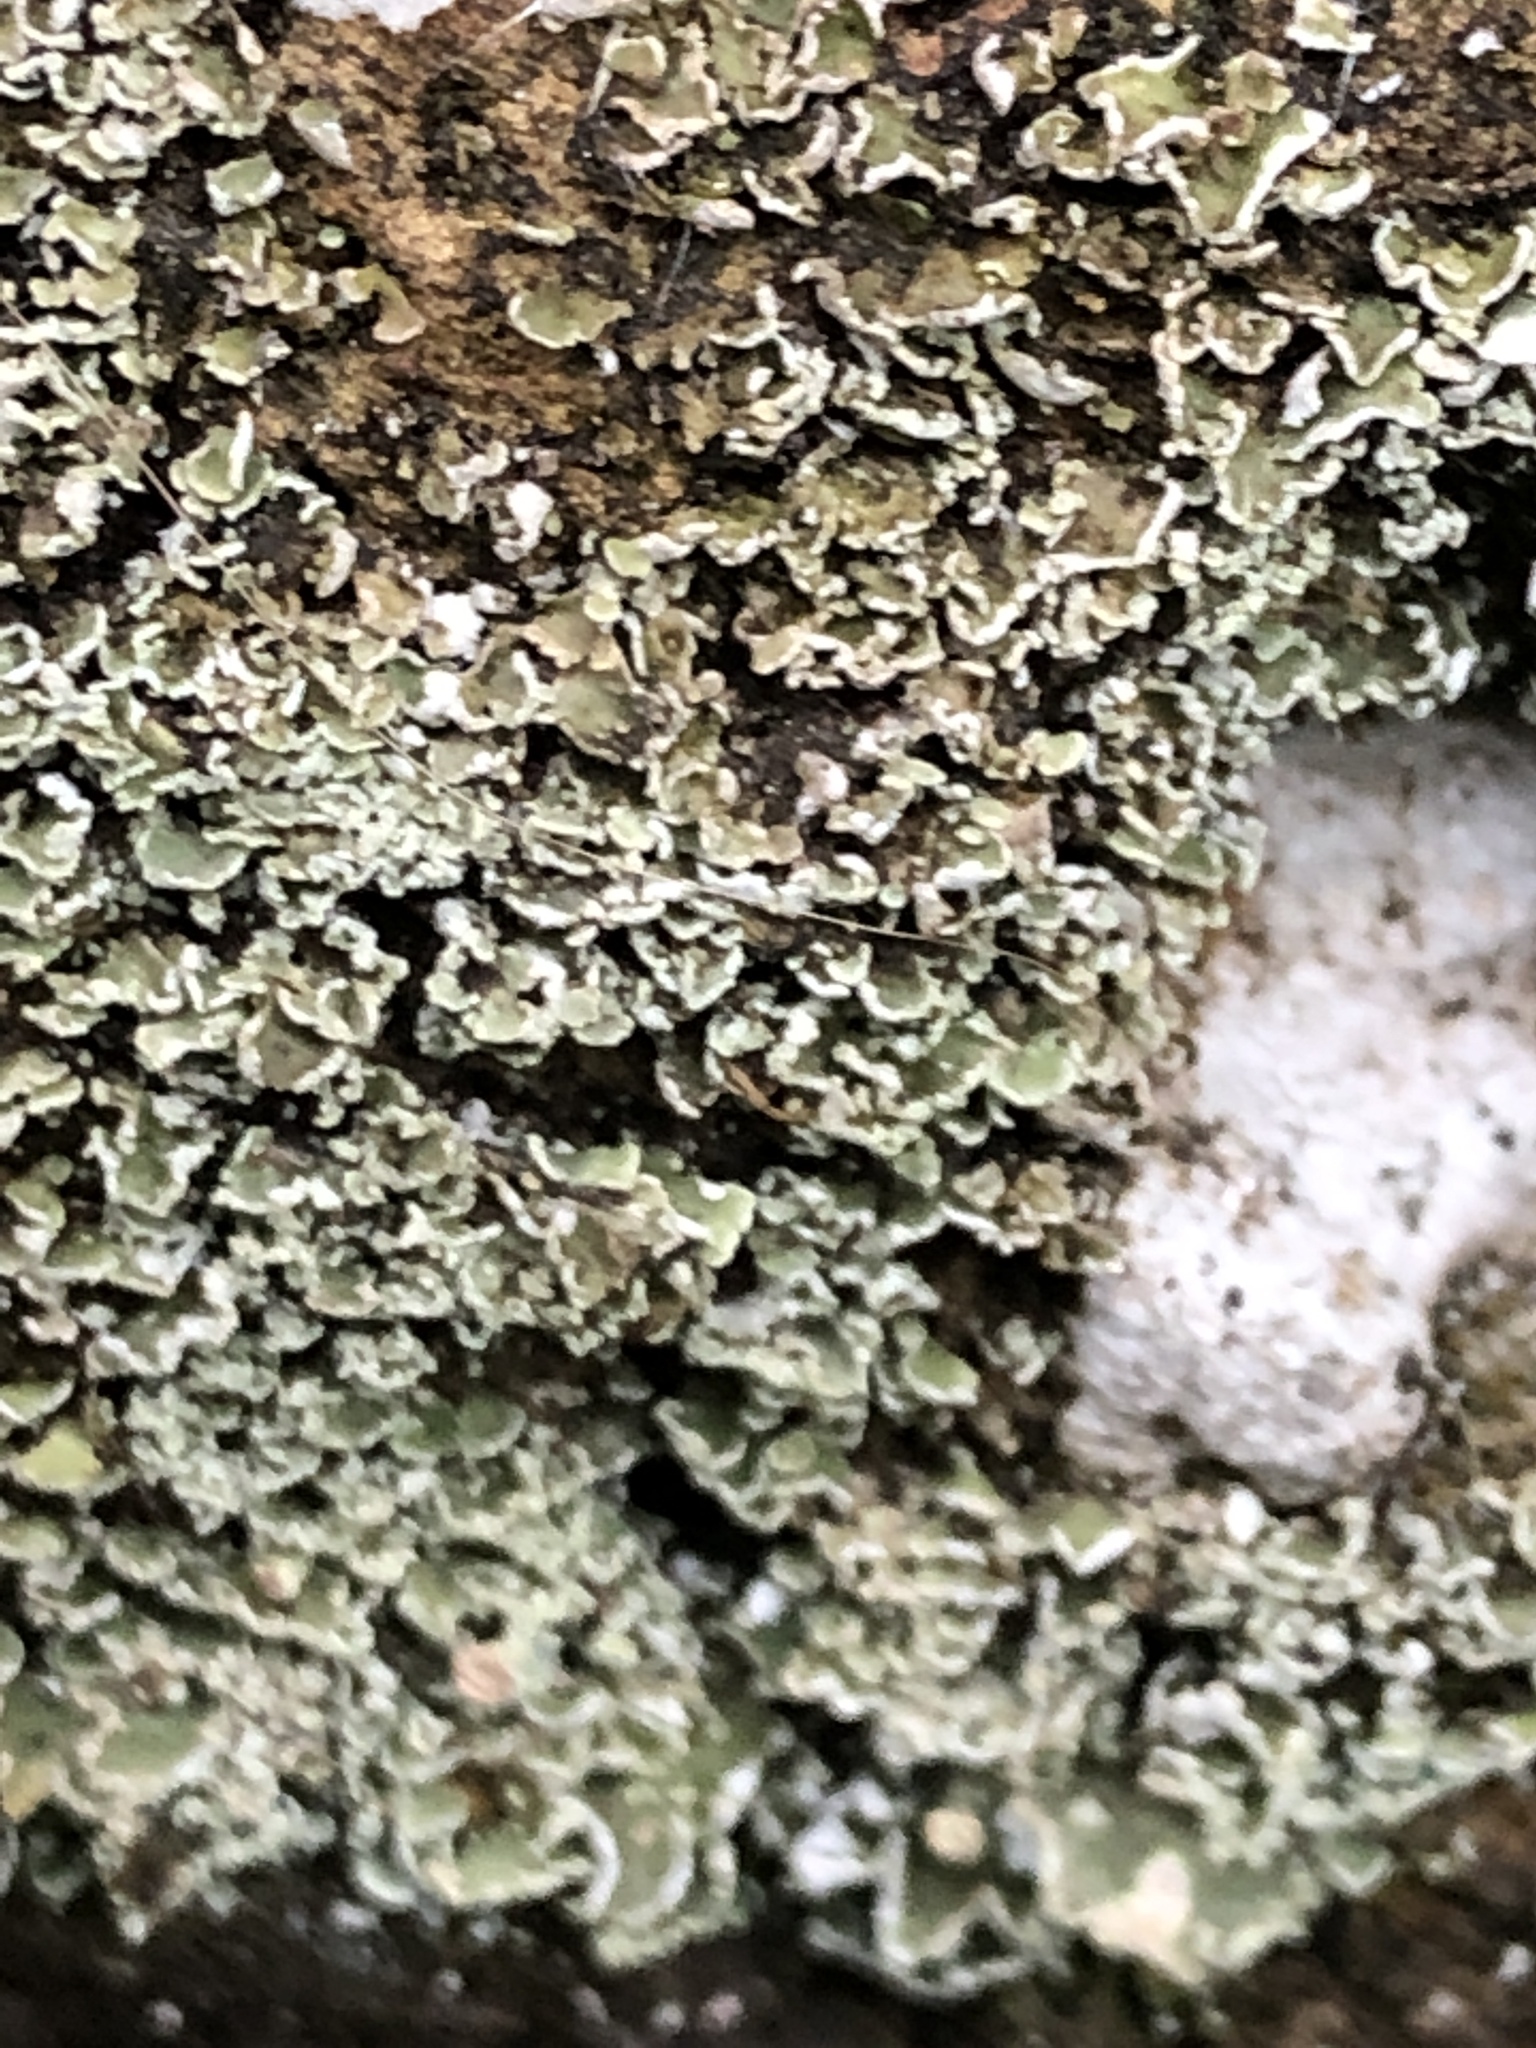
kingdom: Fungi
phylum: Ascomycota
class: Lecanoromycetes
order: Lecanorales
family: Cladoniaceae
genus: Cladonia
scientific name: Cladonia digitata
